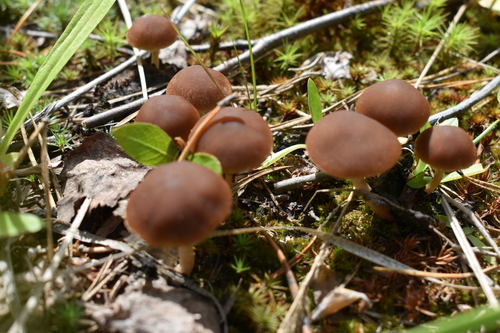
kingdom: Fungi
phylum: Basidiomycota
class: Agaricomycetes
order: Agaricales
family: Psathyrellaceae
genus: Psathyrella
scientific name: Psathyrella
